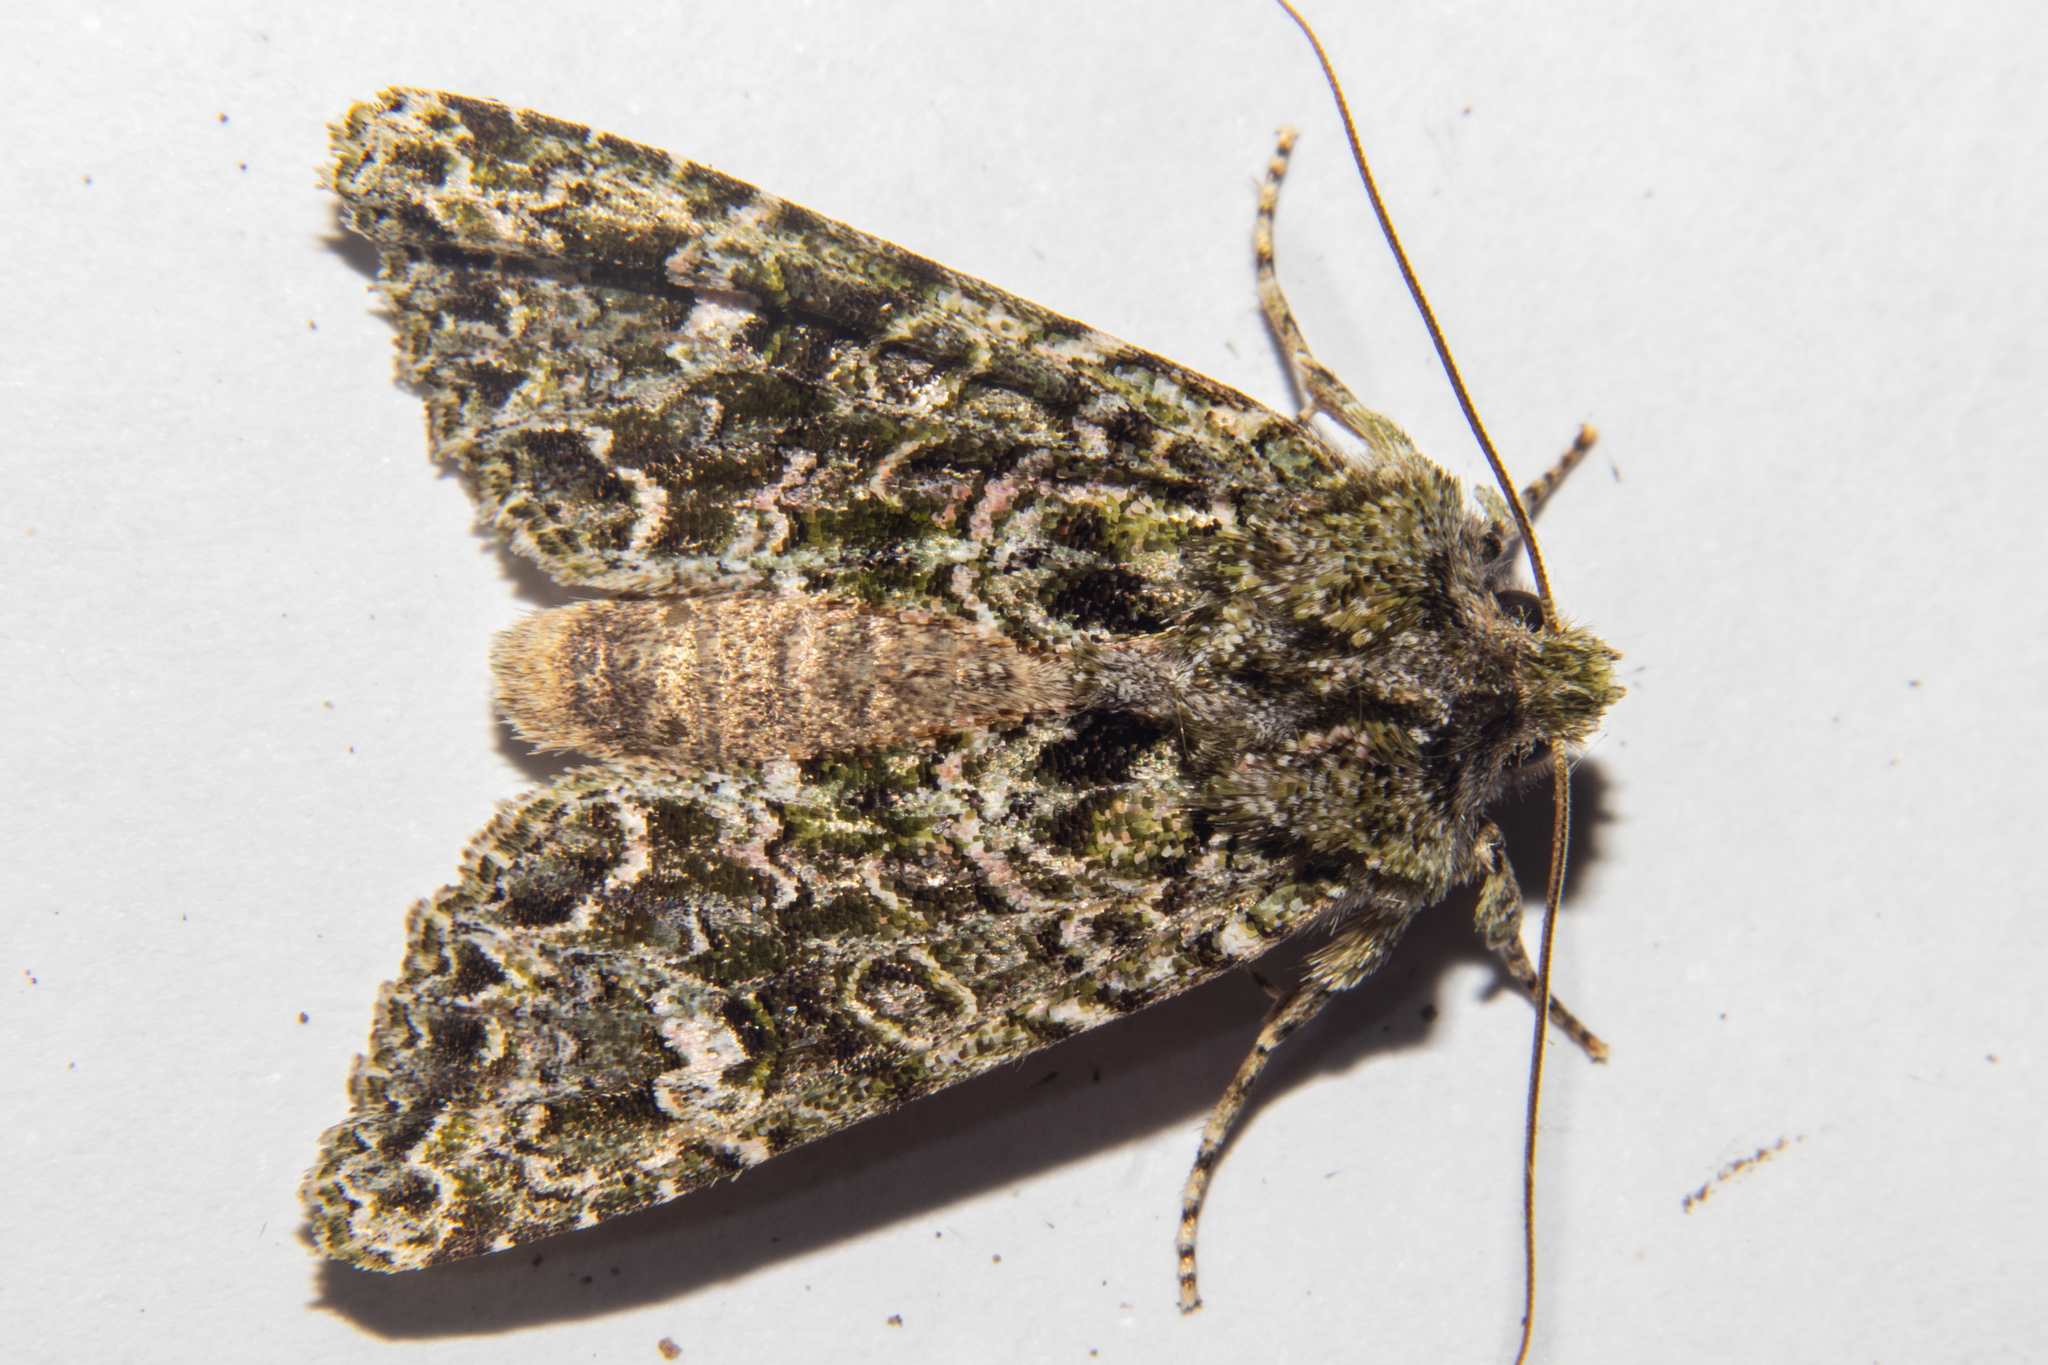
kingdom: Animalia
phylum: Arthropoda
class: Insecta
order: Lepidoptera
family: Noctuidae
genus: Ichneutica
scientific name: Ichneutica
